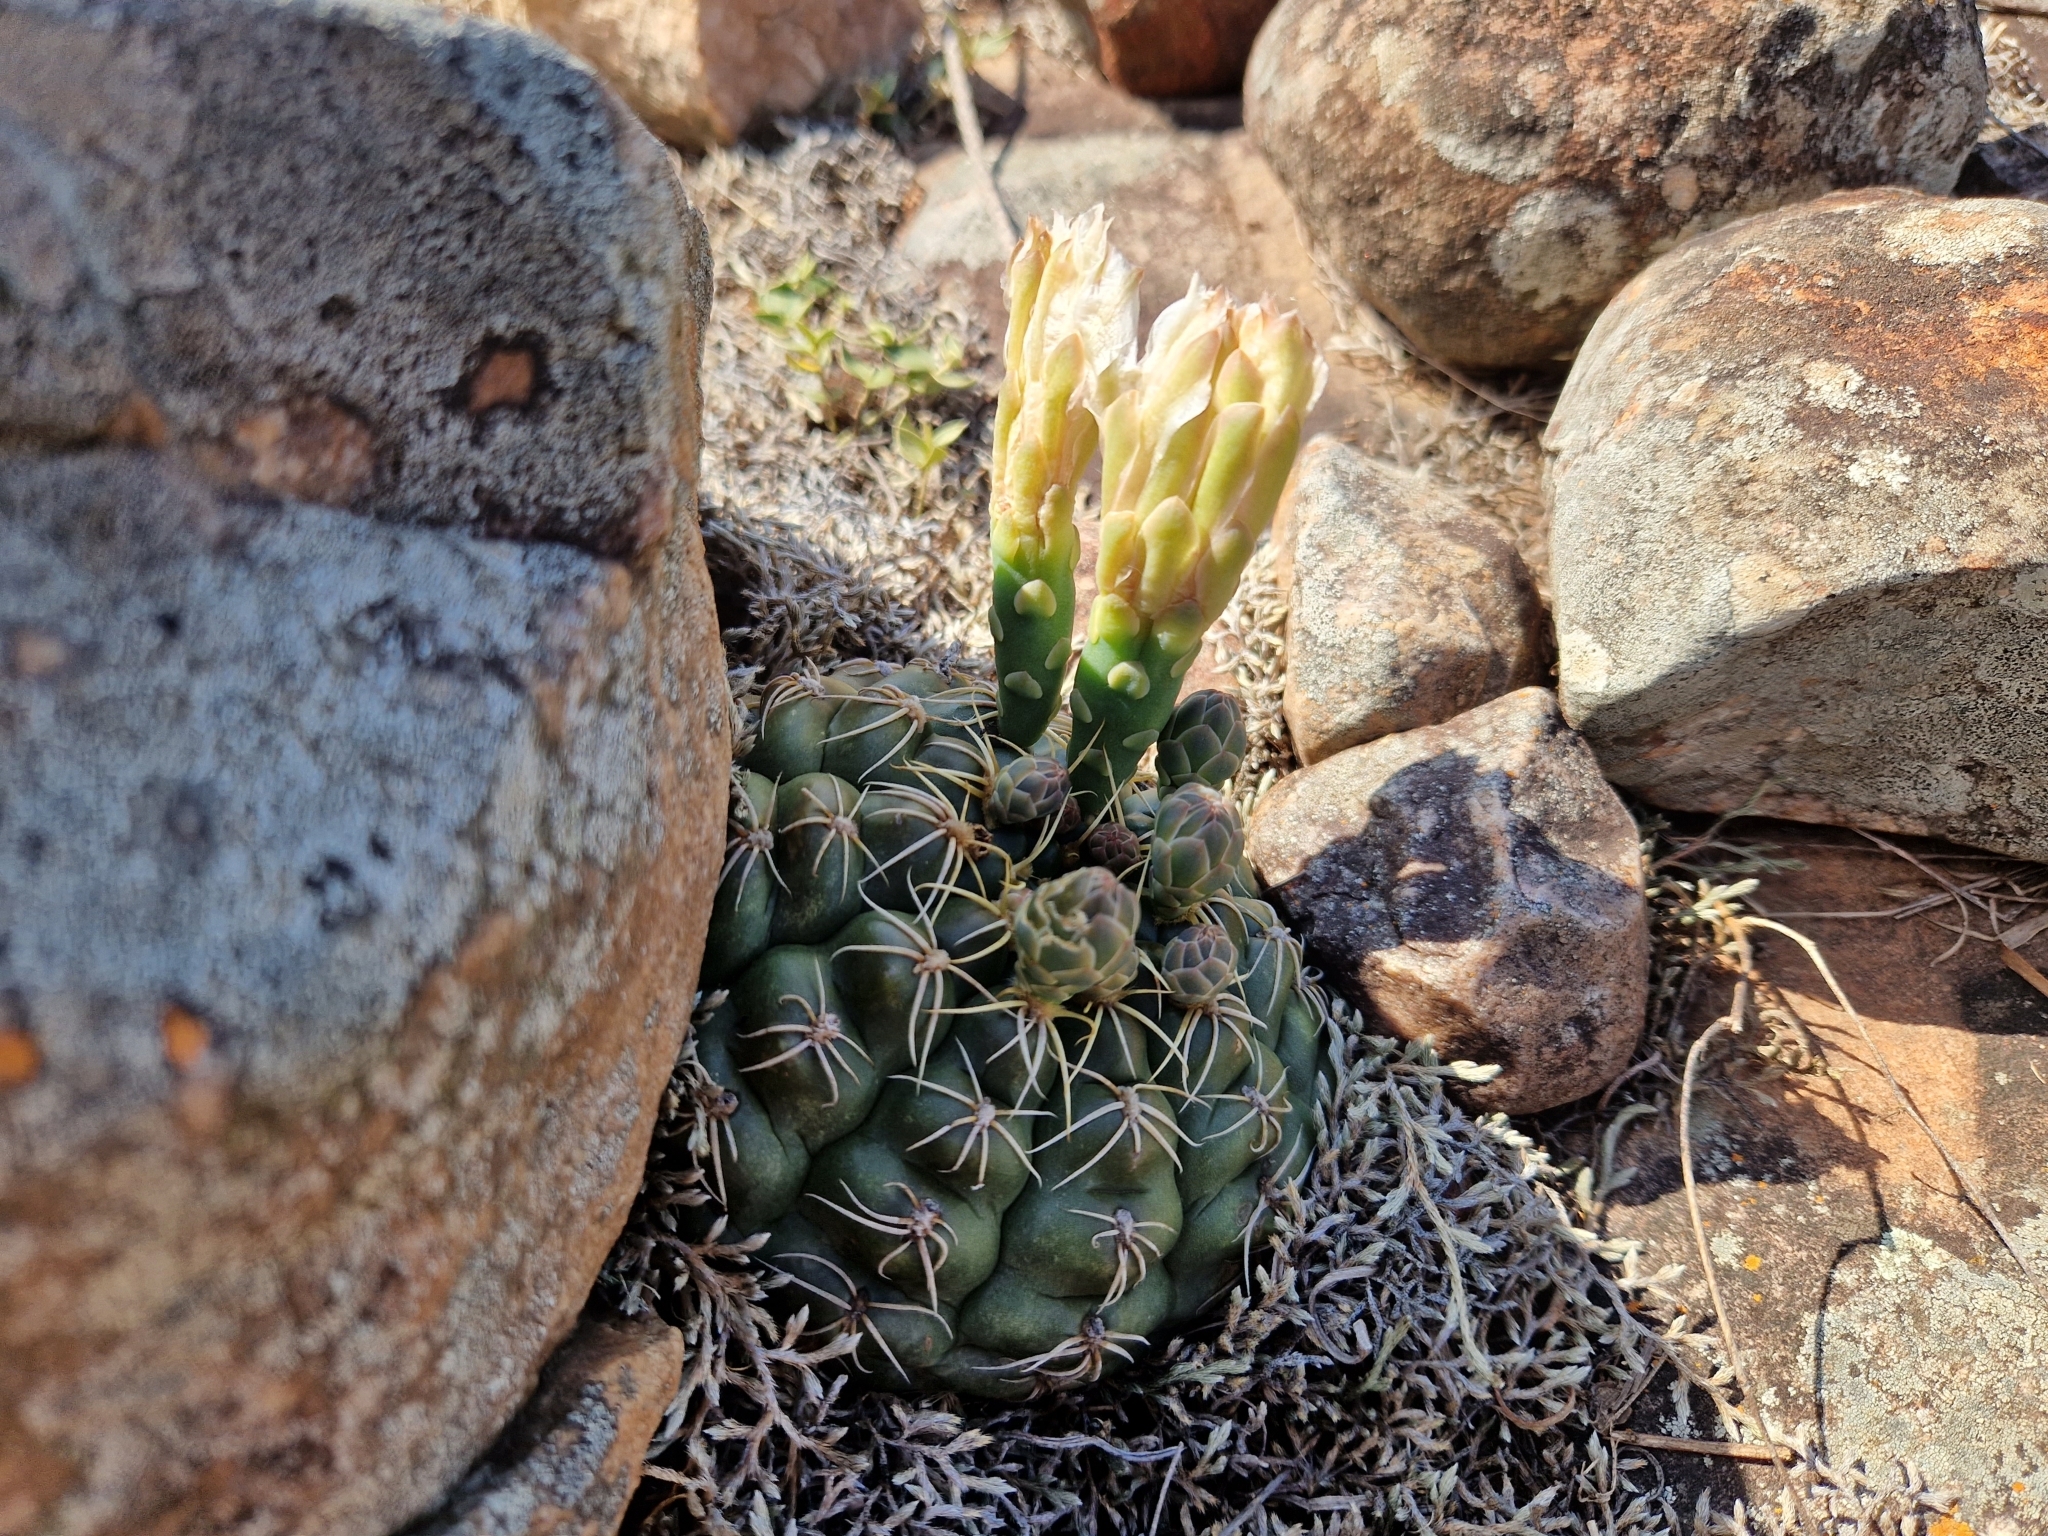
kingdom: Plantae
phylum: Tracheophyta
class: Magnoliopsida
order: Caryophyllales
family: Cactaceae
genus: Gymnocalycium
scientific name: Gymnocalycium denudatum
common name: Spider cactus
